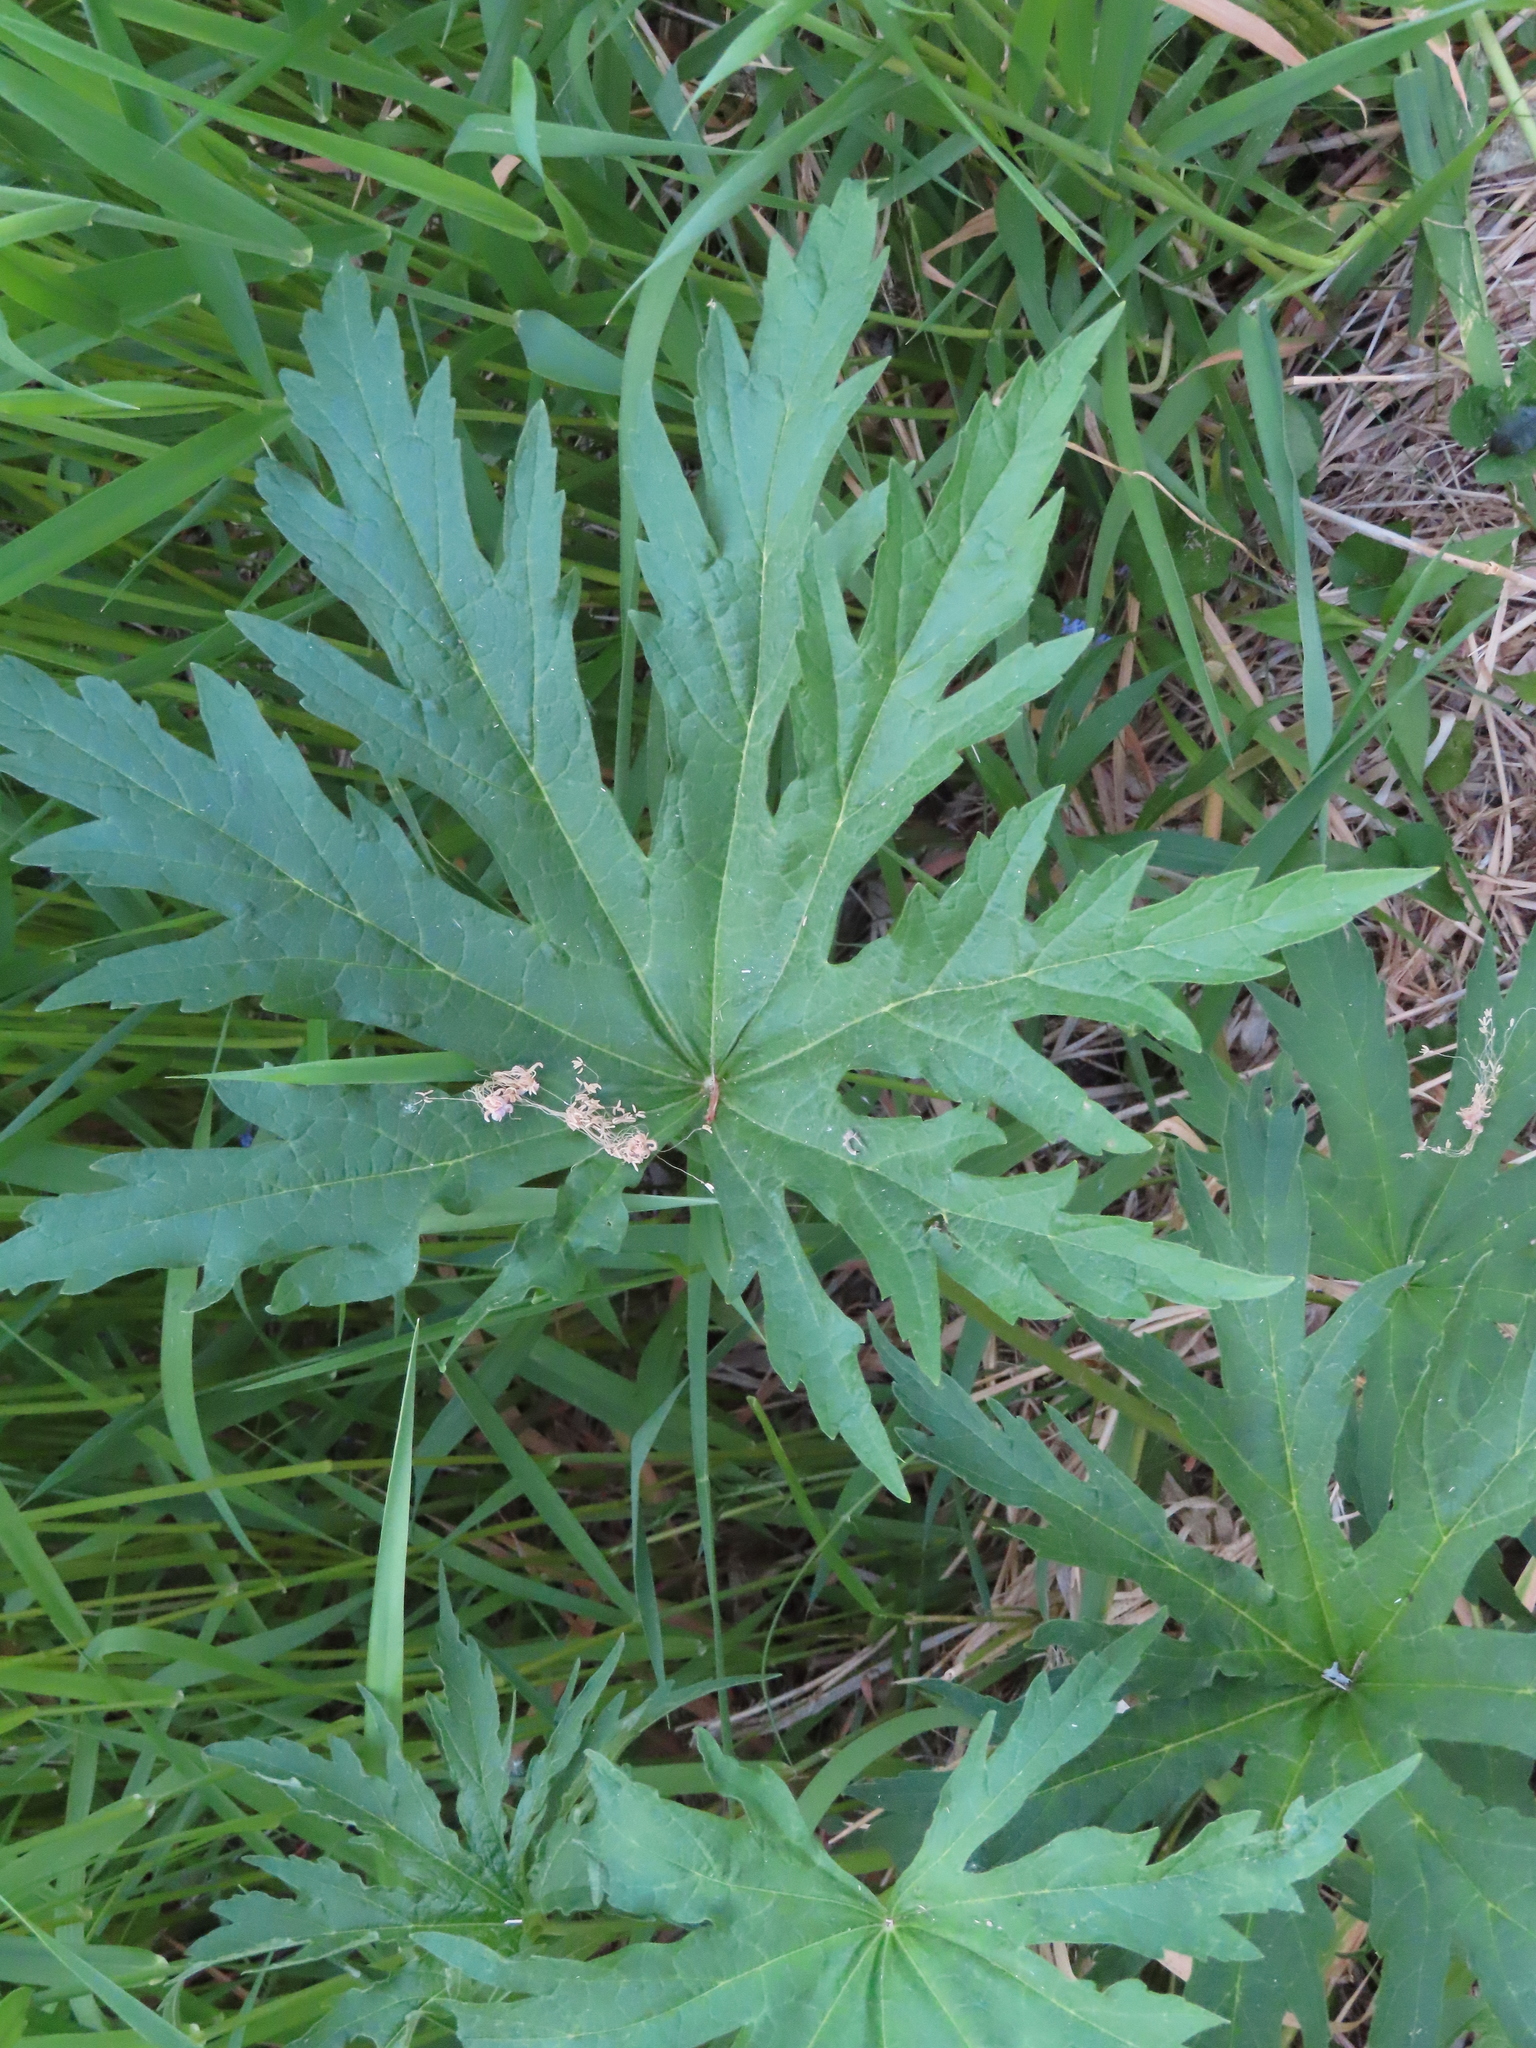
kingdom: Plantae
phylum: Tracheophyta
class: Magnoliopsida
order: Malvales
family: Malvaceae
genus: Napaea
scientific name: Napaea dioica
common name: Glade-mallow
